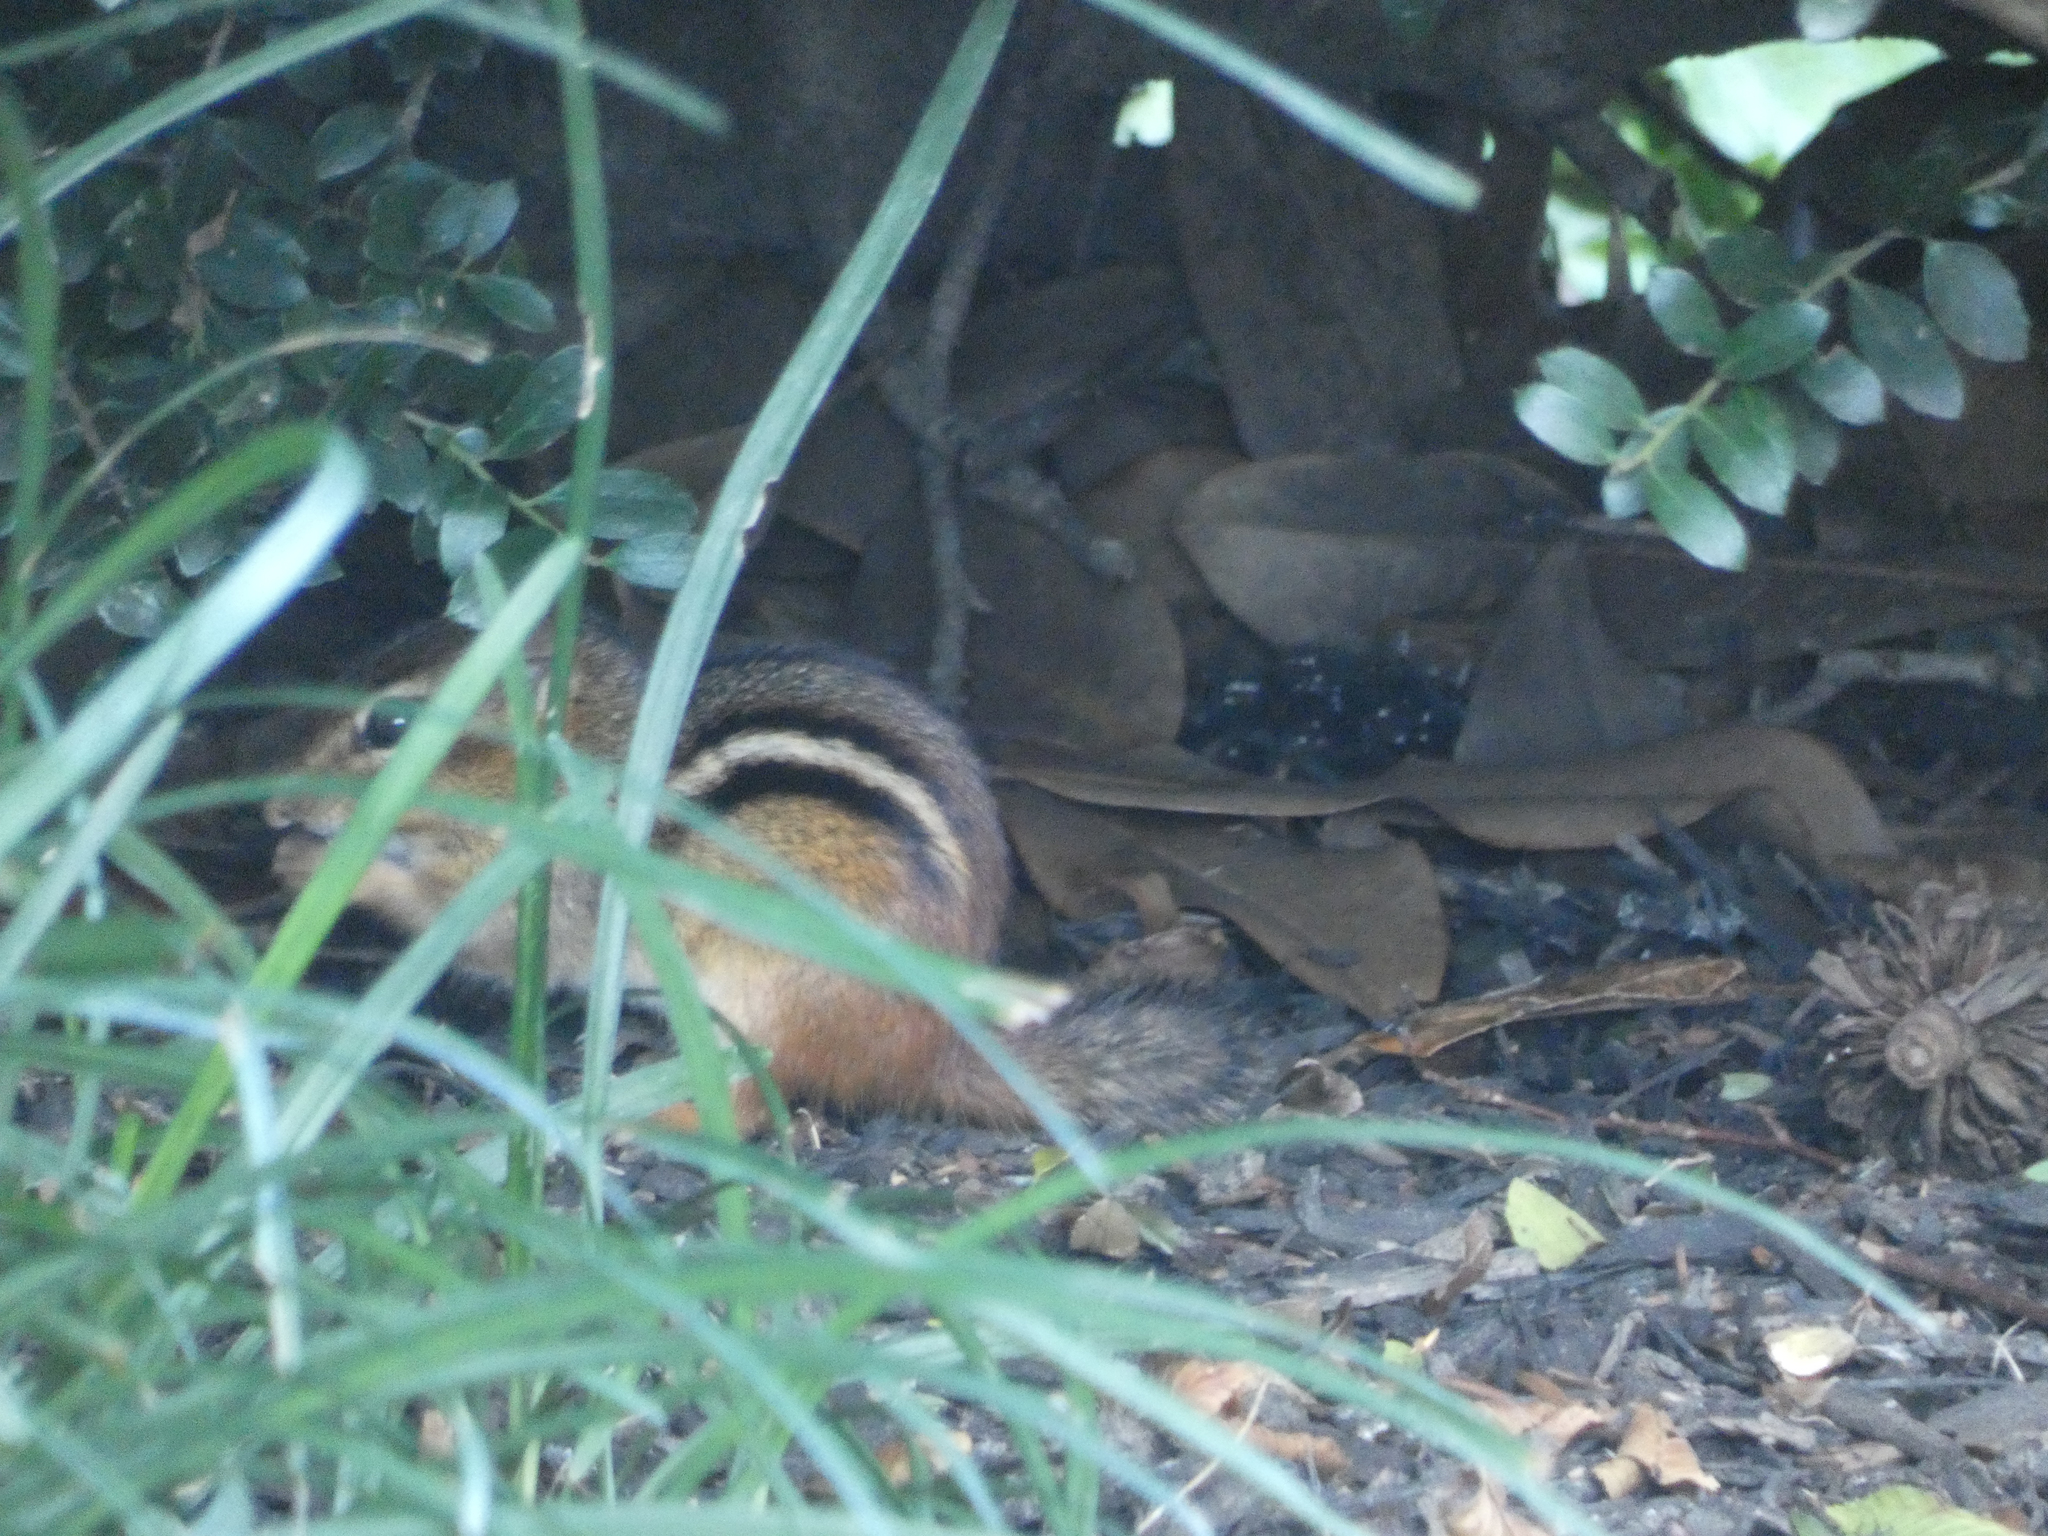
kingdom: Animalia
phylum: Chordata
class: Mammalia
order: Rodentia
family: Sciuridae
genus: Tamias
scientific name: Tamias striatus
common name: Eastern chipmunk
